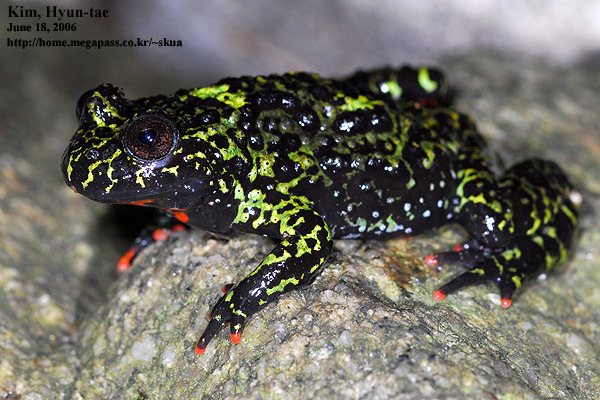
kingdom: Animalia
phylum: Chordata
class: Amphibia
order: Anura
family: Bombinatoridae
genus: Bombina
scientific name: Bombina orientalis
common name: Oriental firebelly toad
